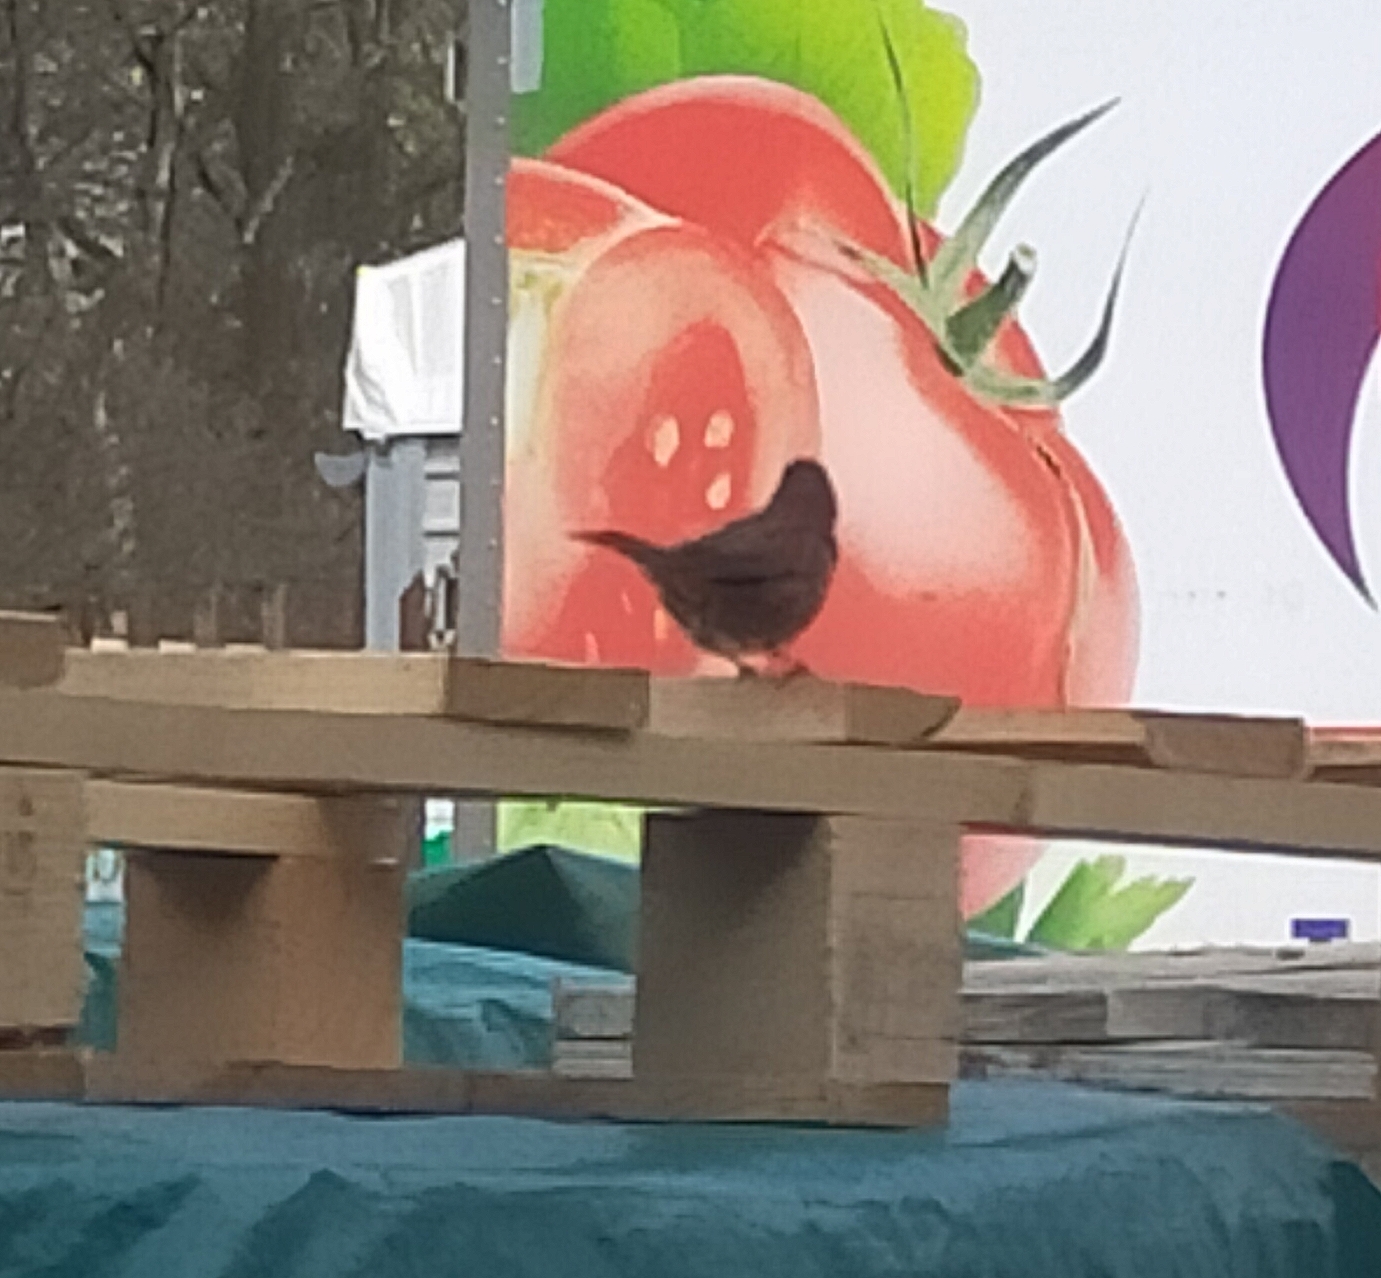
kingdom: Animalia
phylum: Chordata
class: Aves
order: Passeriformes
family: Turdidae
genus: Turdus
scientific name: Turdus merula
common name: Common blackbird
